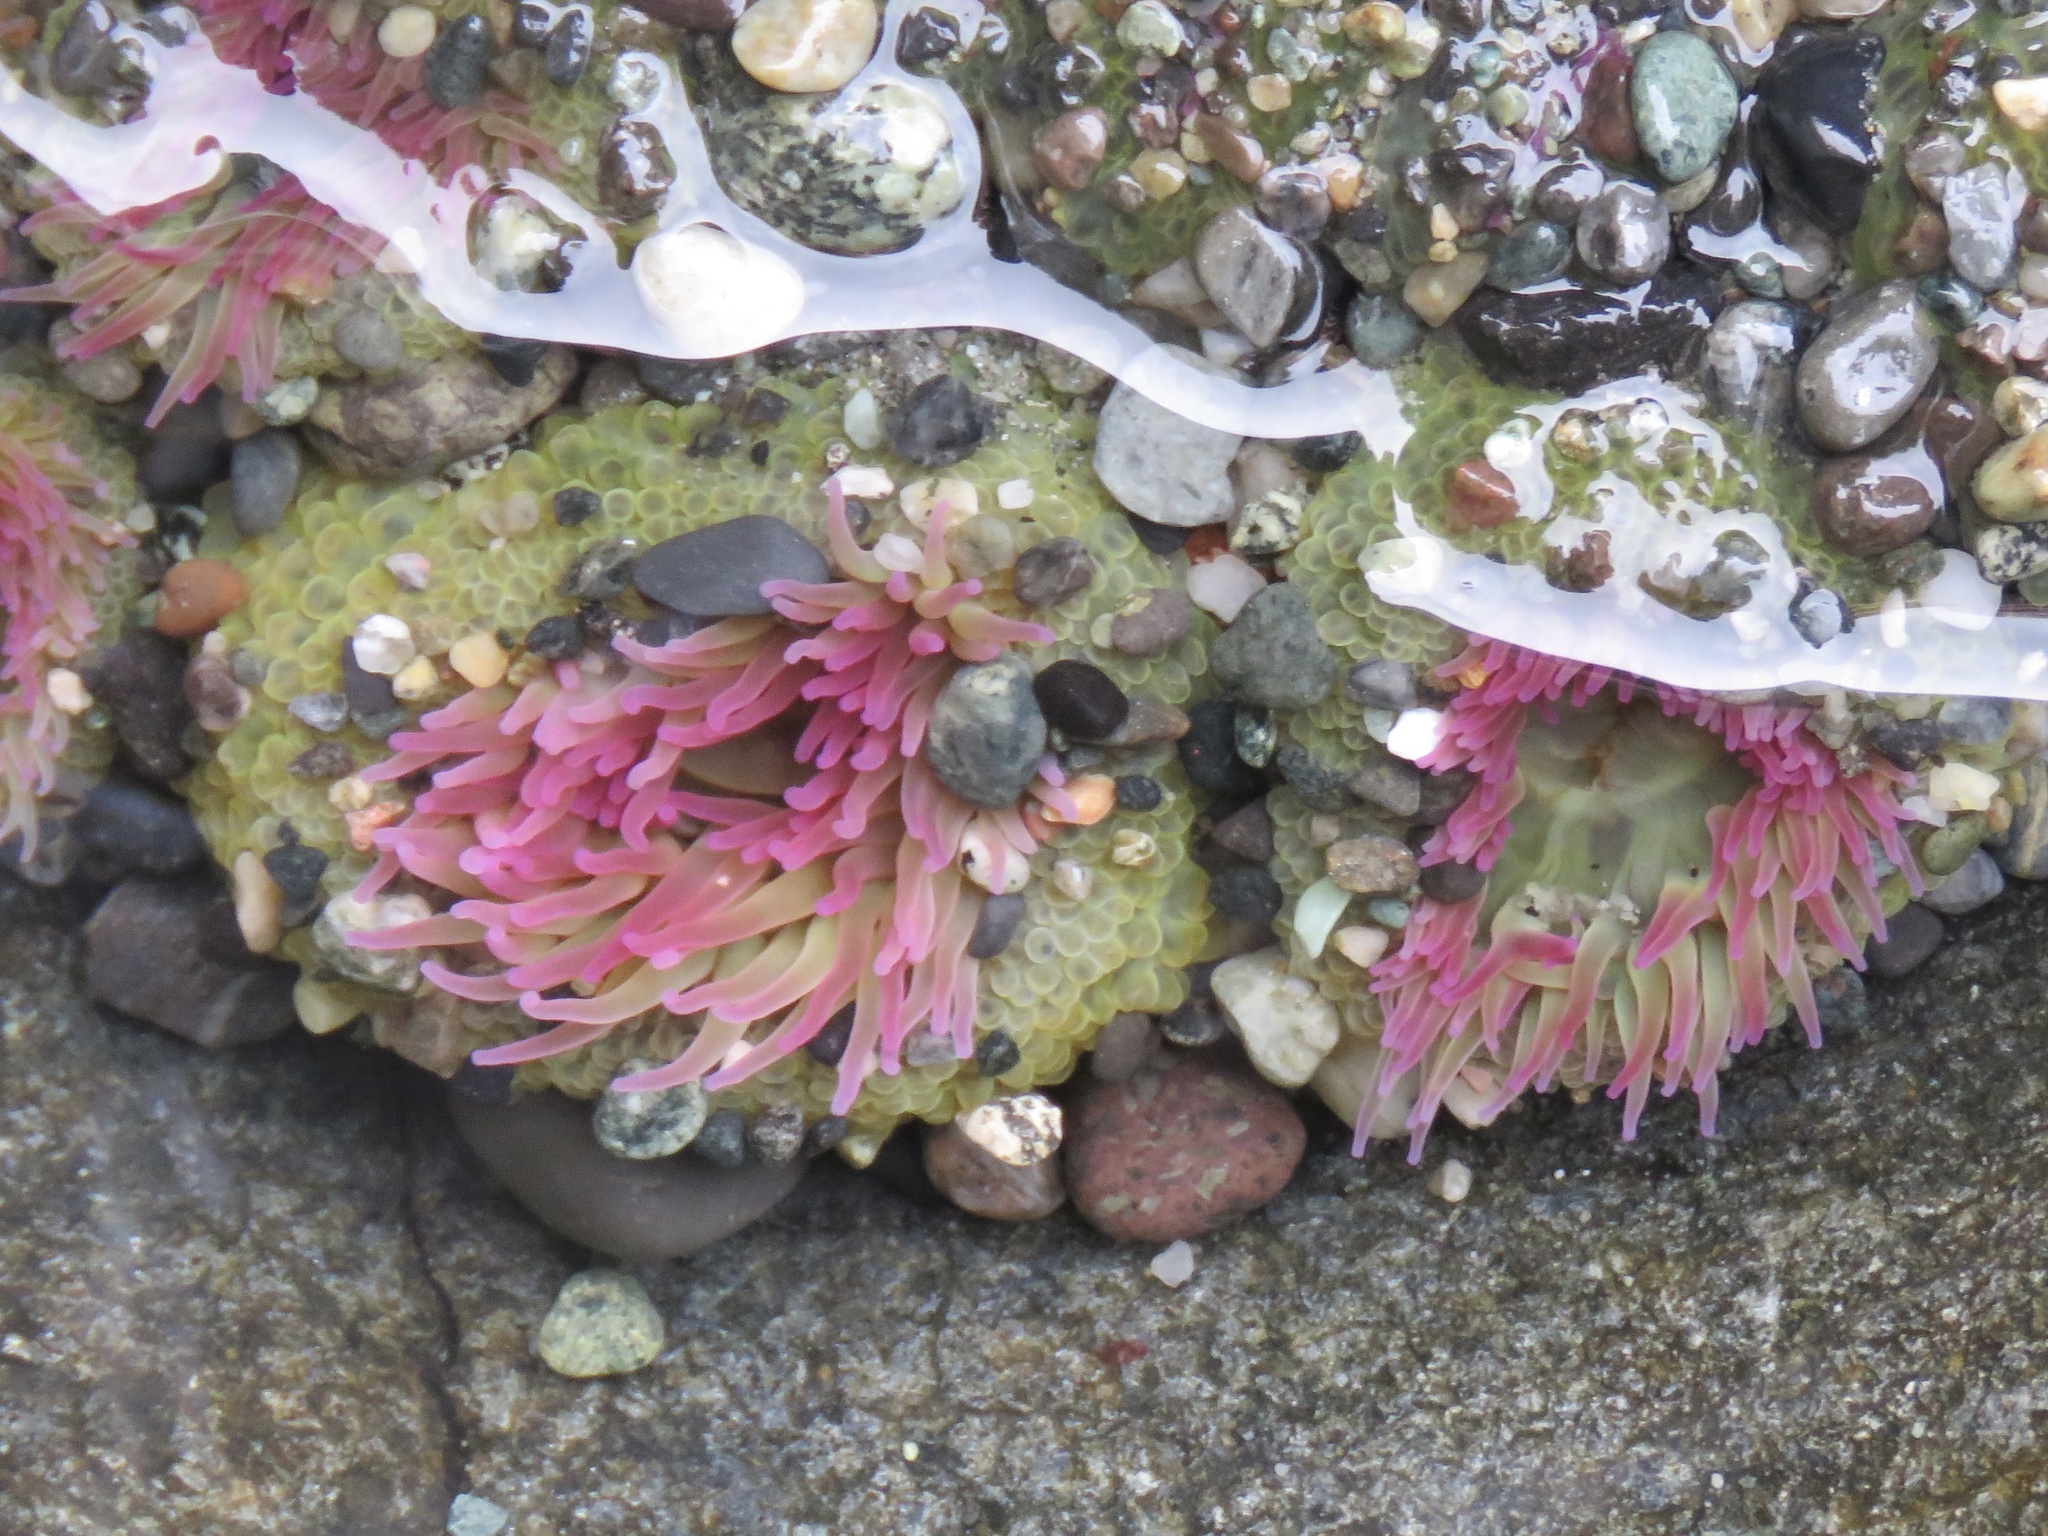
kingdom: Animalia
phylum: Cnidaria
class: Anthozoa
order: Actiniaria
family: Actiniidae
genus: Anthopleura
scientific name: Anthopleura elegantissima
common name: Clonal anemone
